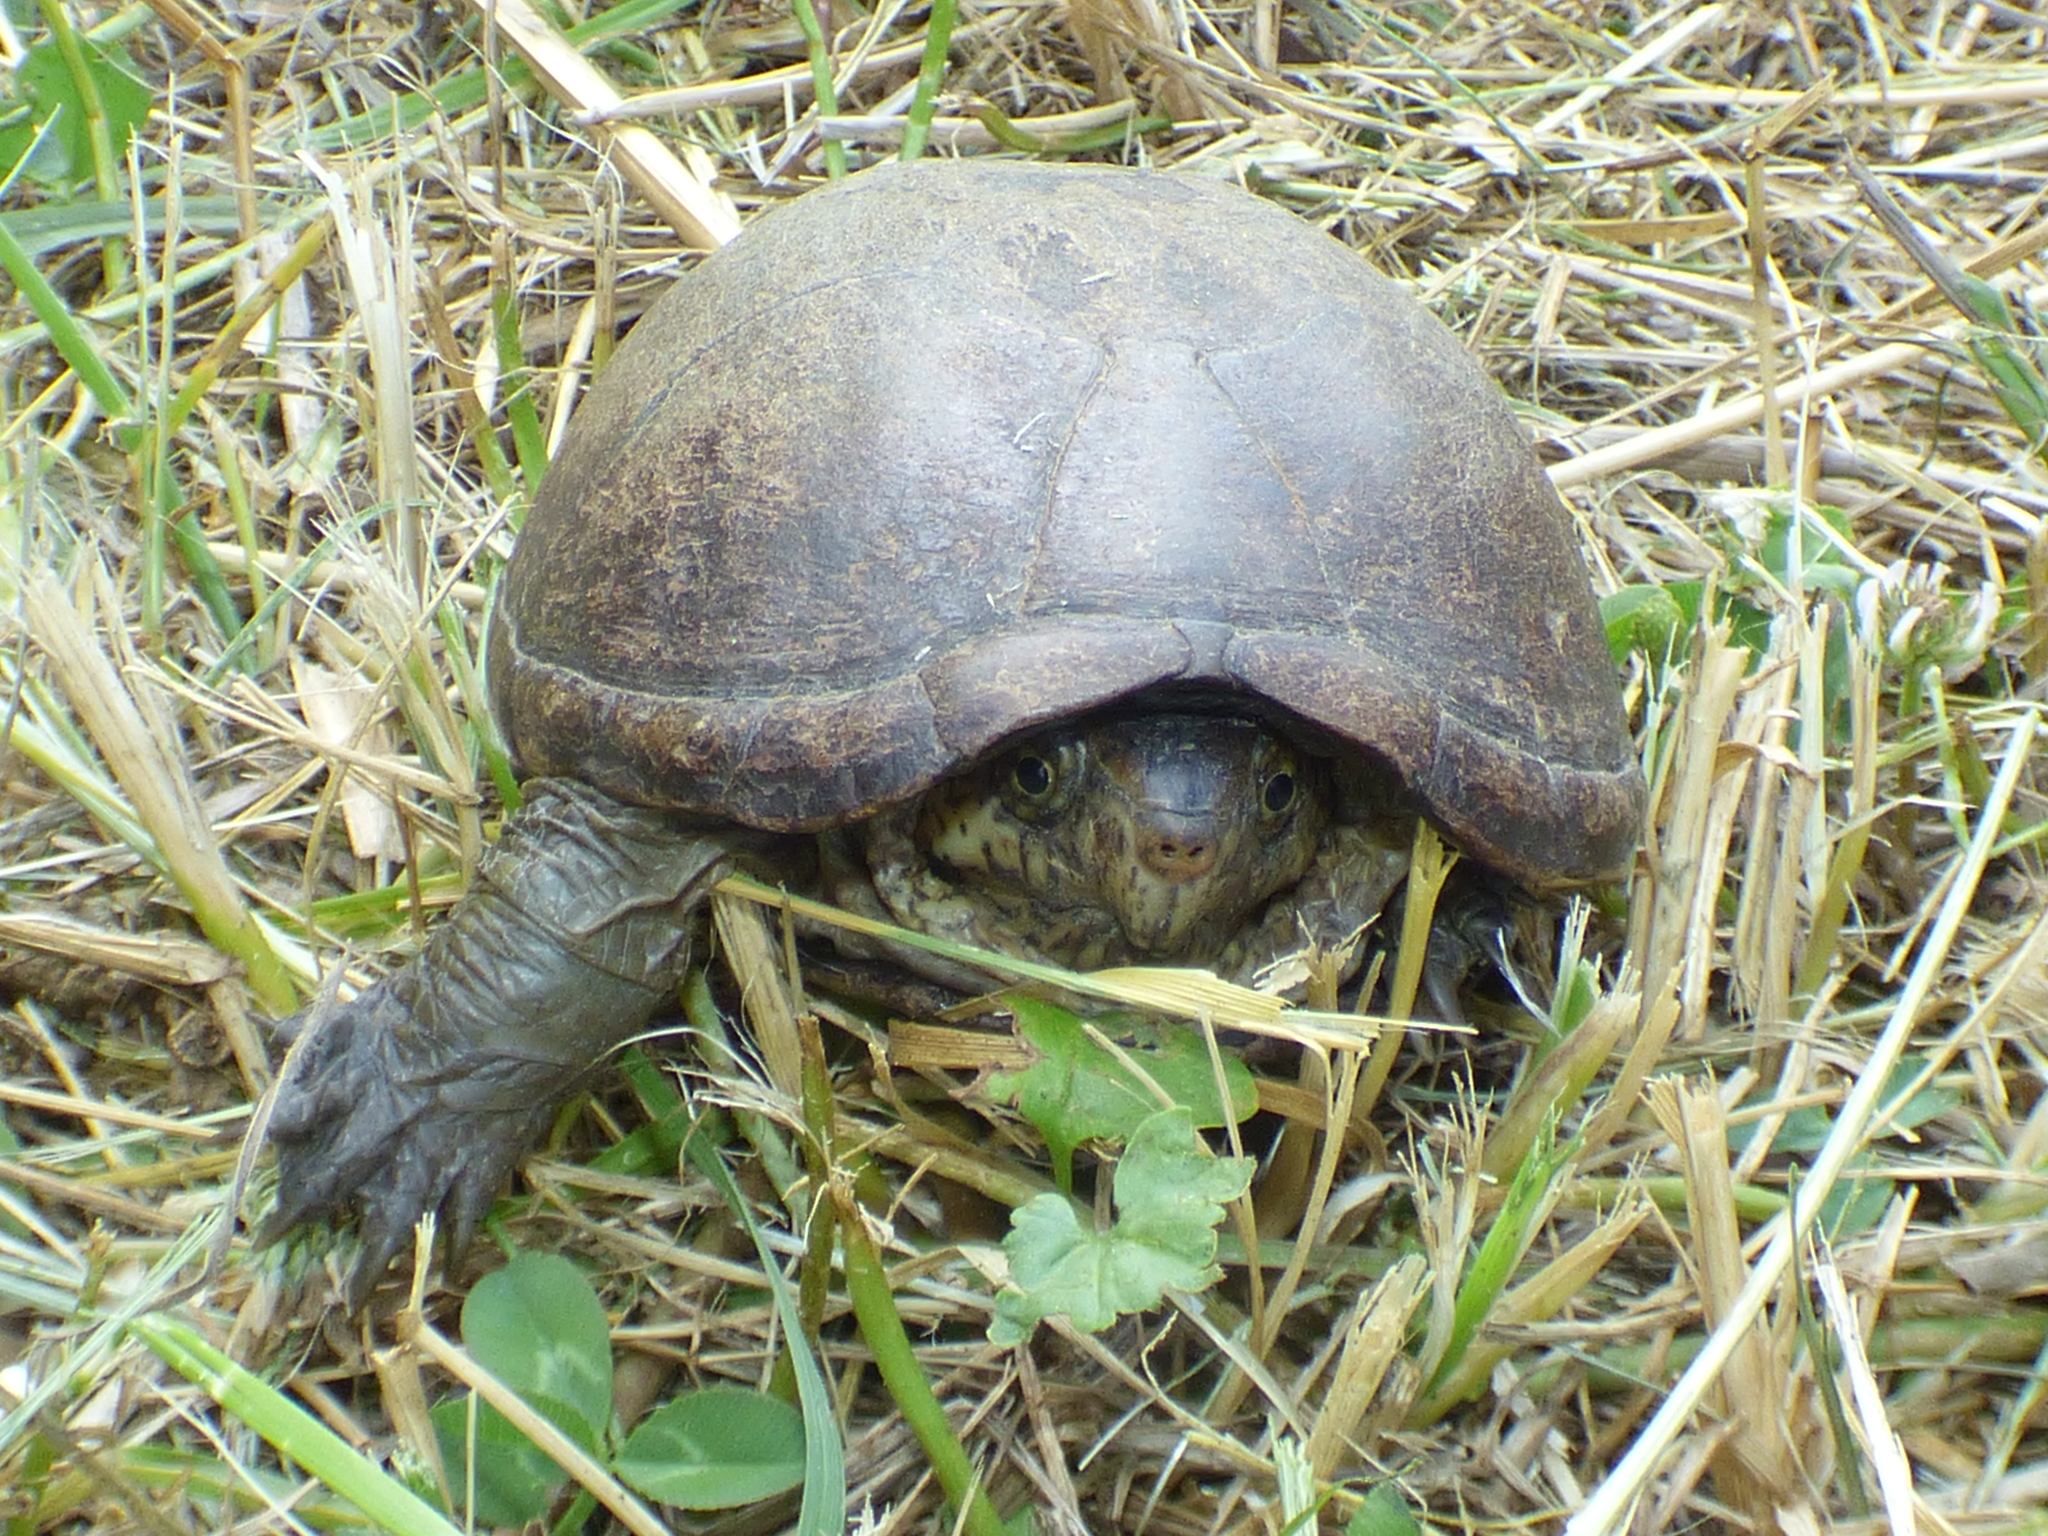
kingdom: Animalia
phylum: Chordata
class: Testudines
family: Kinosternidae
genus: Kinosternon
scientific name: Kinosternon subrubrum
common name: Eastern mud turtle
